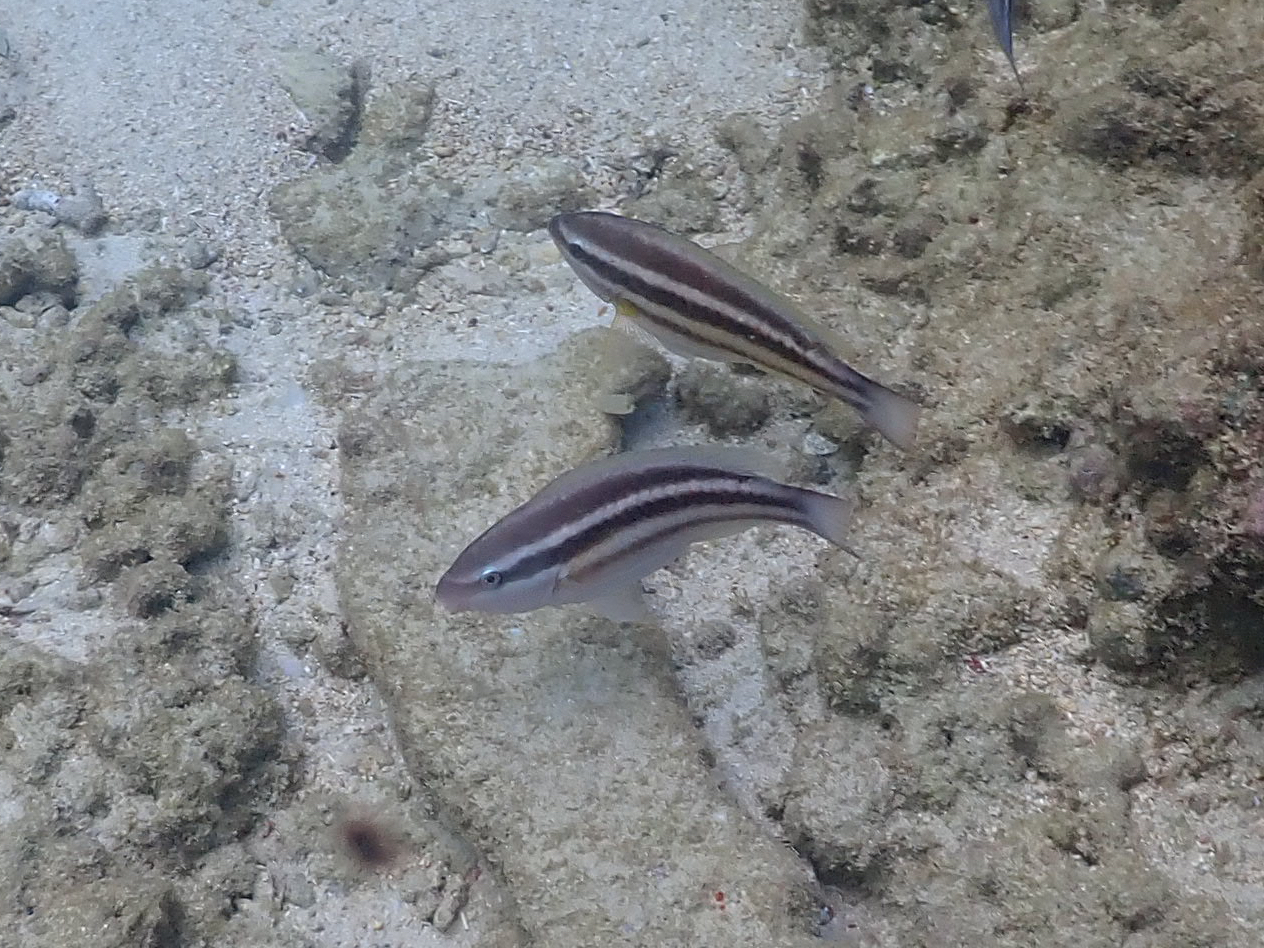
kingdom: Animalia
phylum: Chordata
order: Perciformes
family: Scaridae
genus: Scarus
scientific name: Scarus taeniopterus
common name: Princess parrotfish
